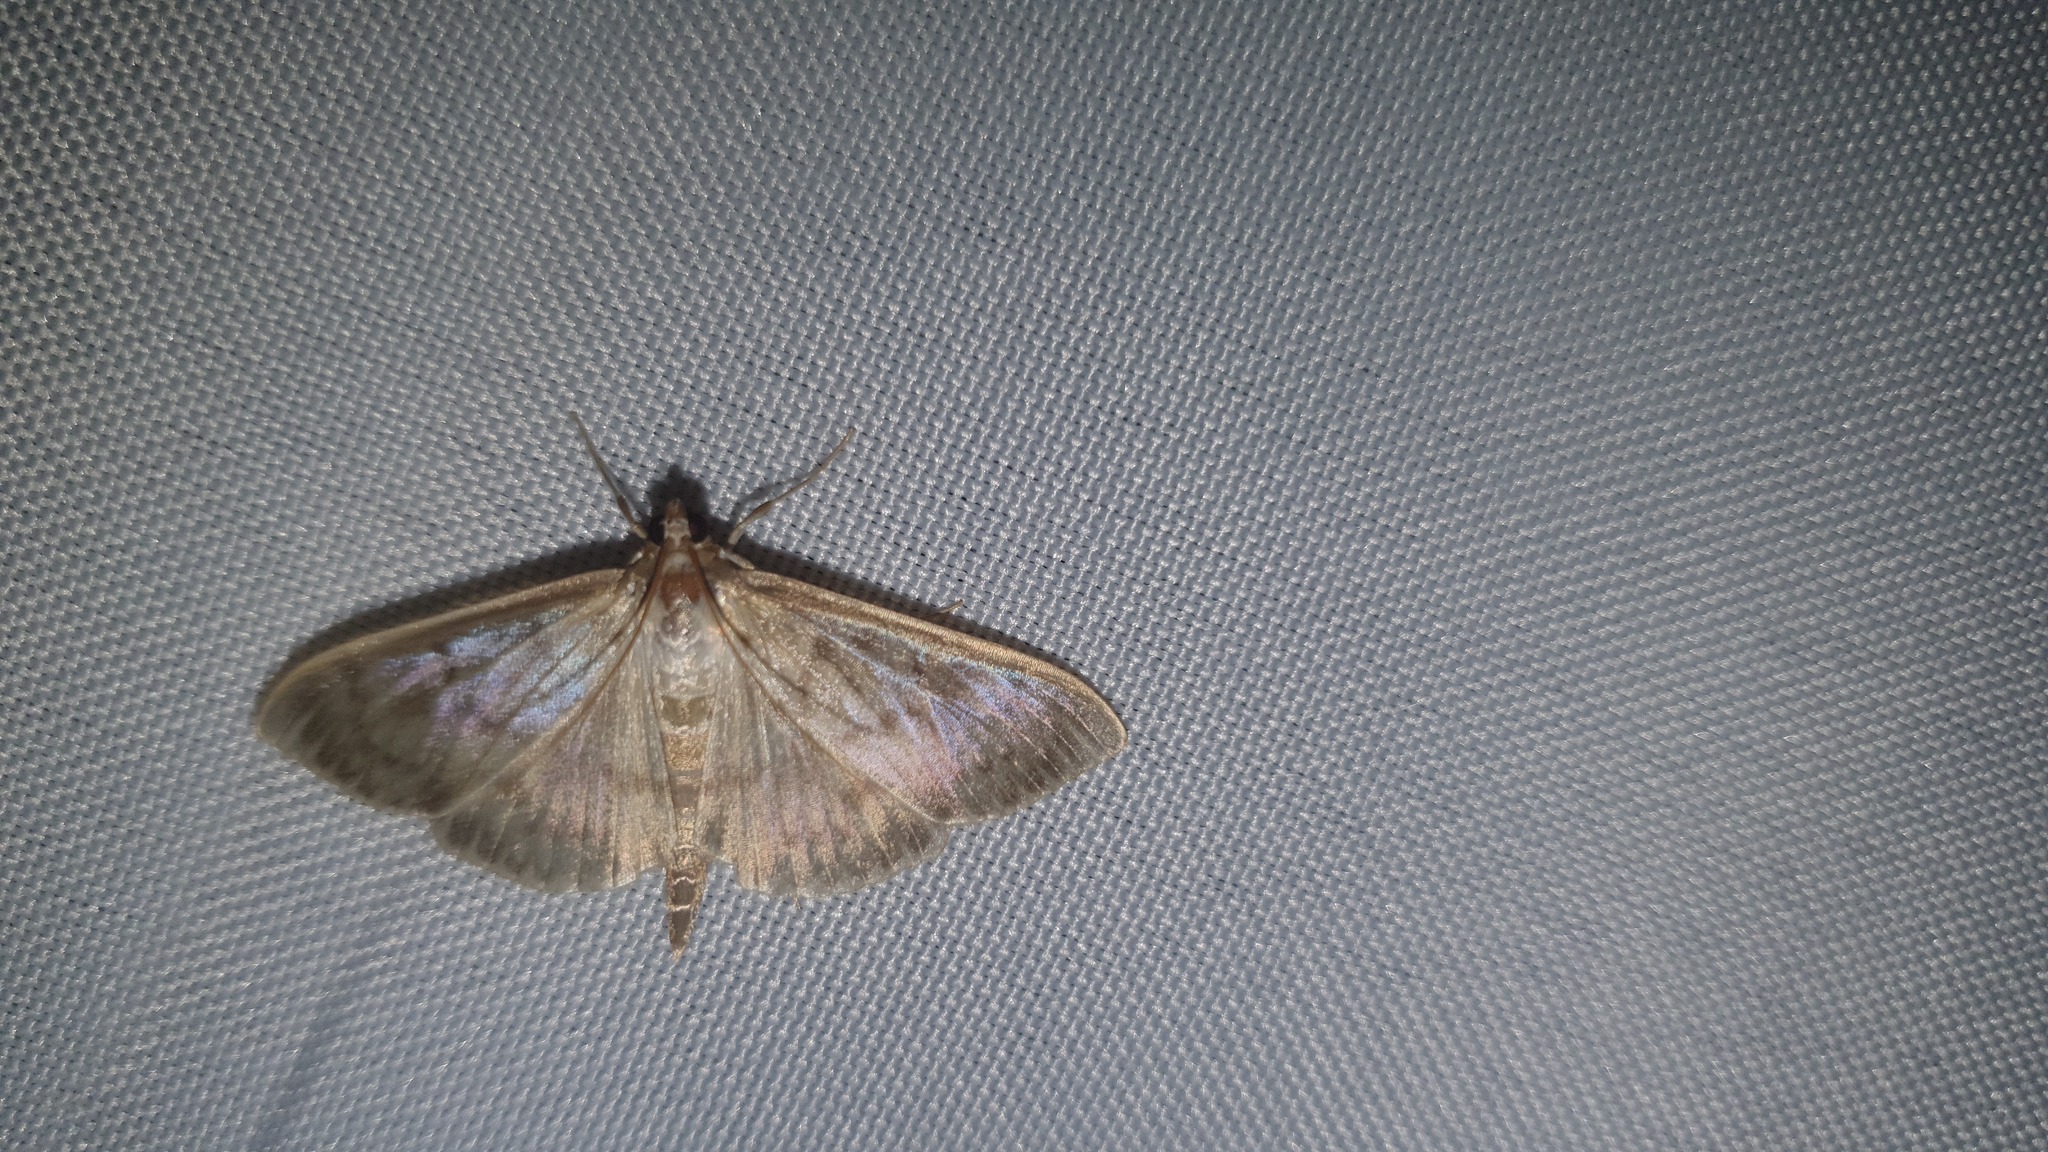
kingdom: Animalia
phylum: Arthropoda
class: Insecta
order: Lepidoptera
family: Crambidae
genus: Patania
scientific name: Patania ruralis
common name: Mother of pearl
